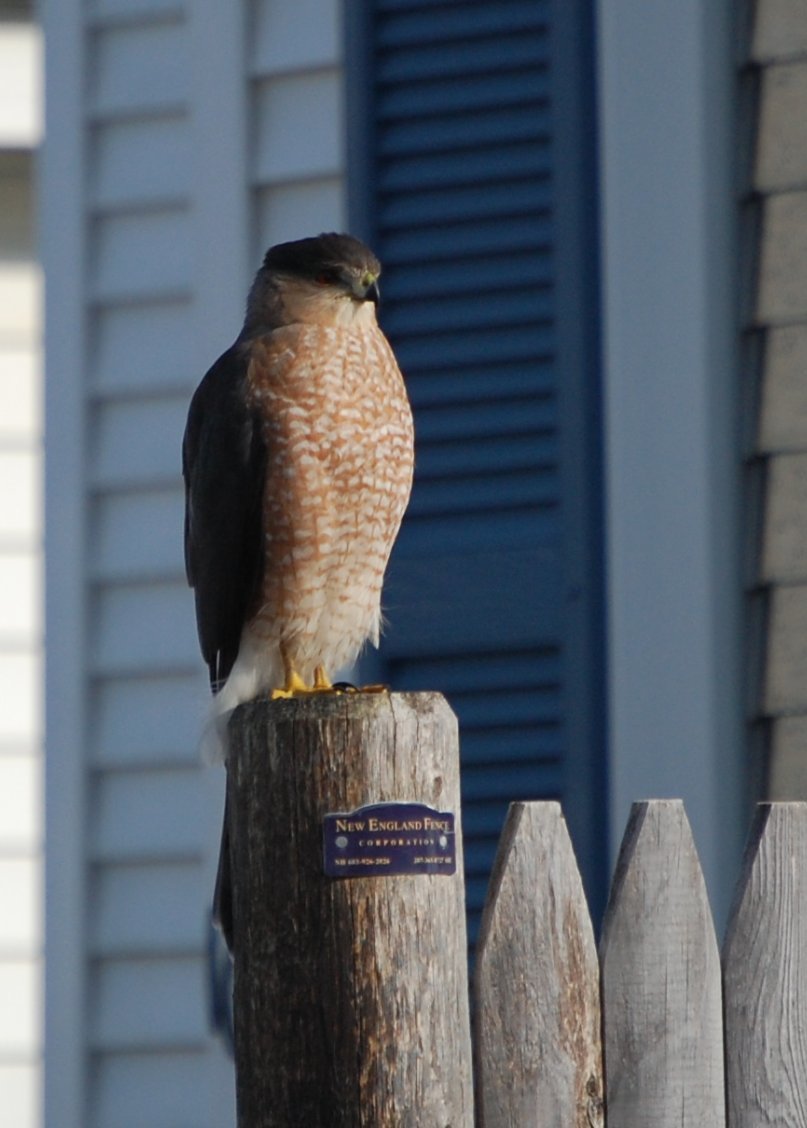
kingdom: Animalia
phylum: Chordata
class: Aves
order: Accipitriformes
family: Accipitridae
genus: Accipiter
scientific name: Accipiter cooperii
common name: Cooper's hawk
